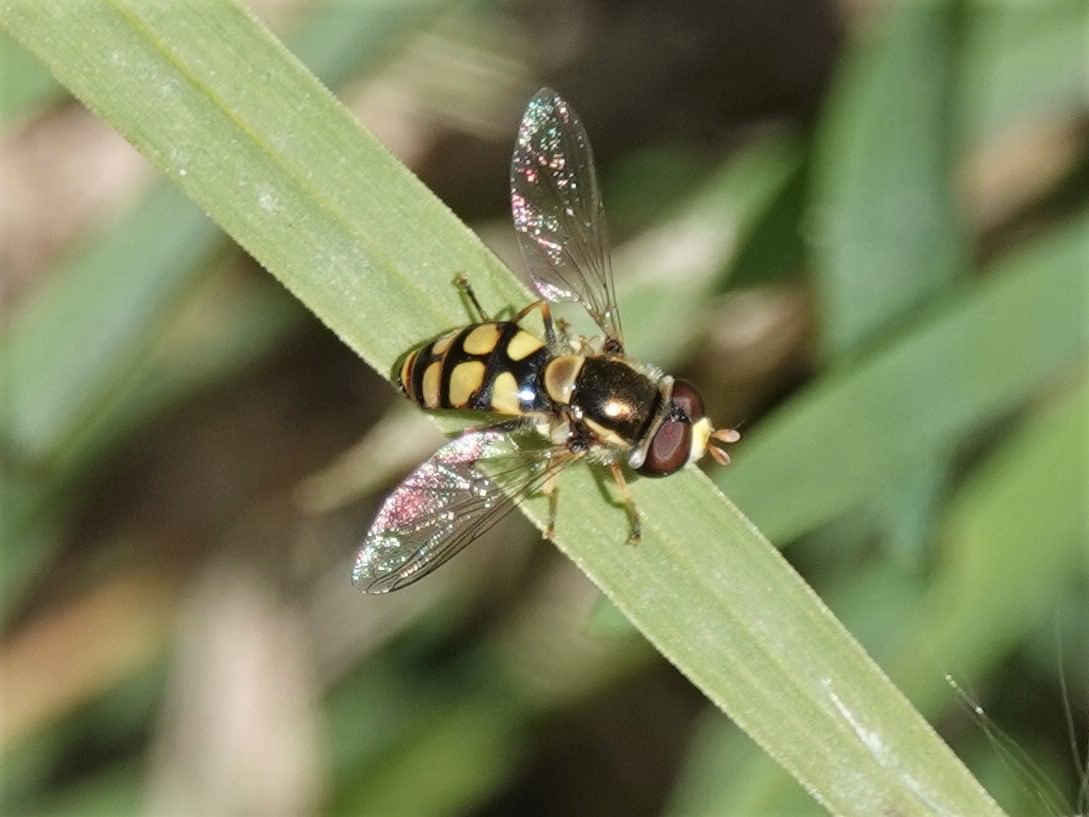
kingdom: Animalia
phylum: Arthropoda
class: Insecta
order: Diptera
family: Syrphidae
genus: Simosyrphus
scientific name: Simosyrphus grandicornis
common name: Hoverfly
